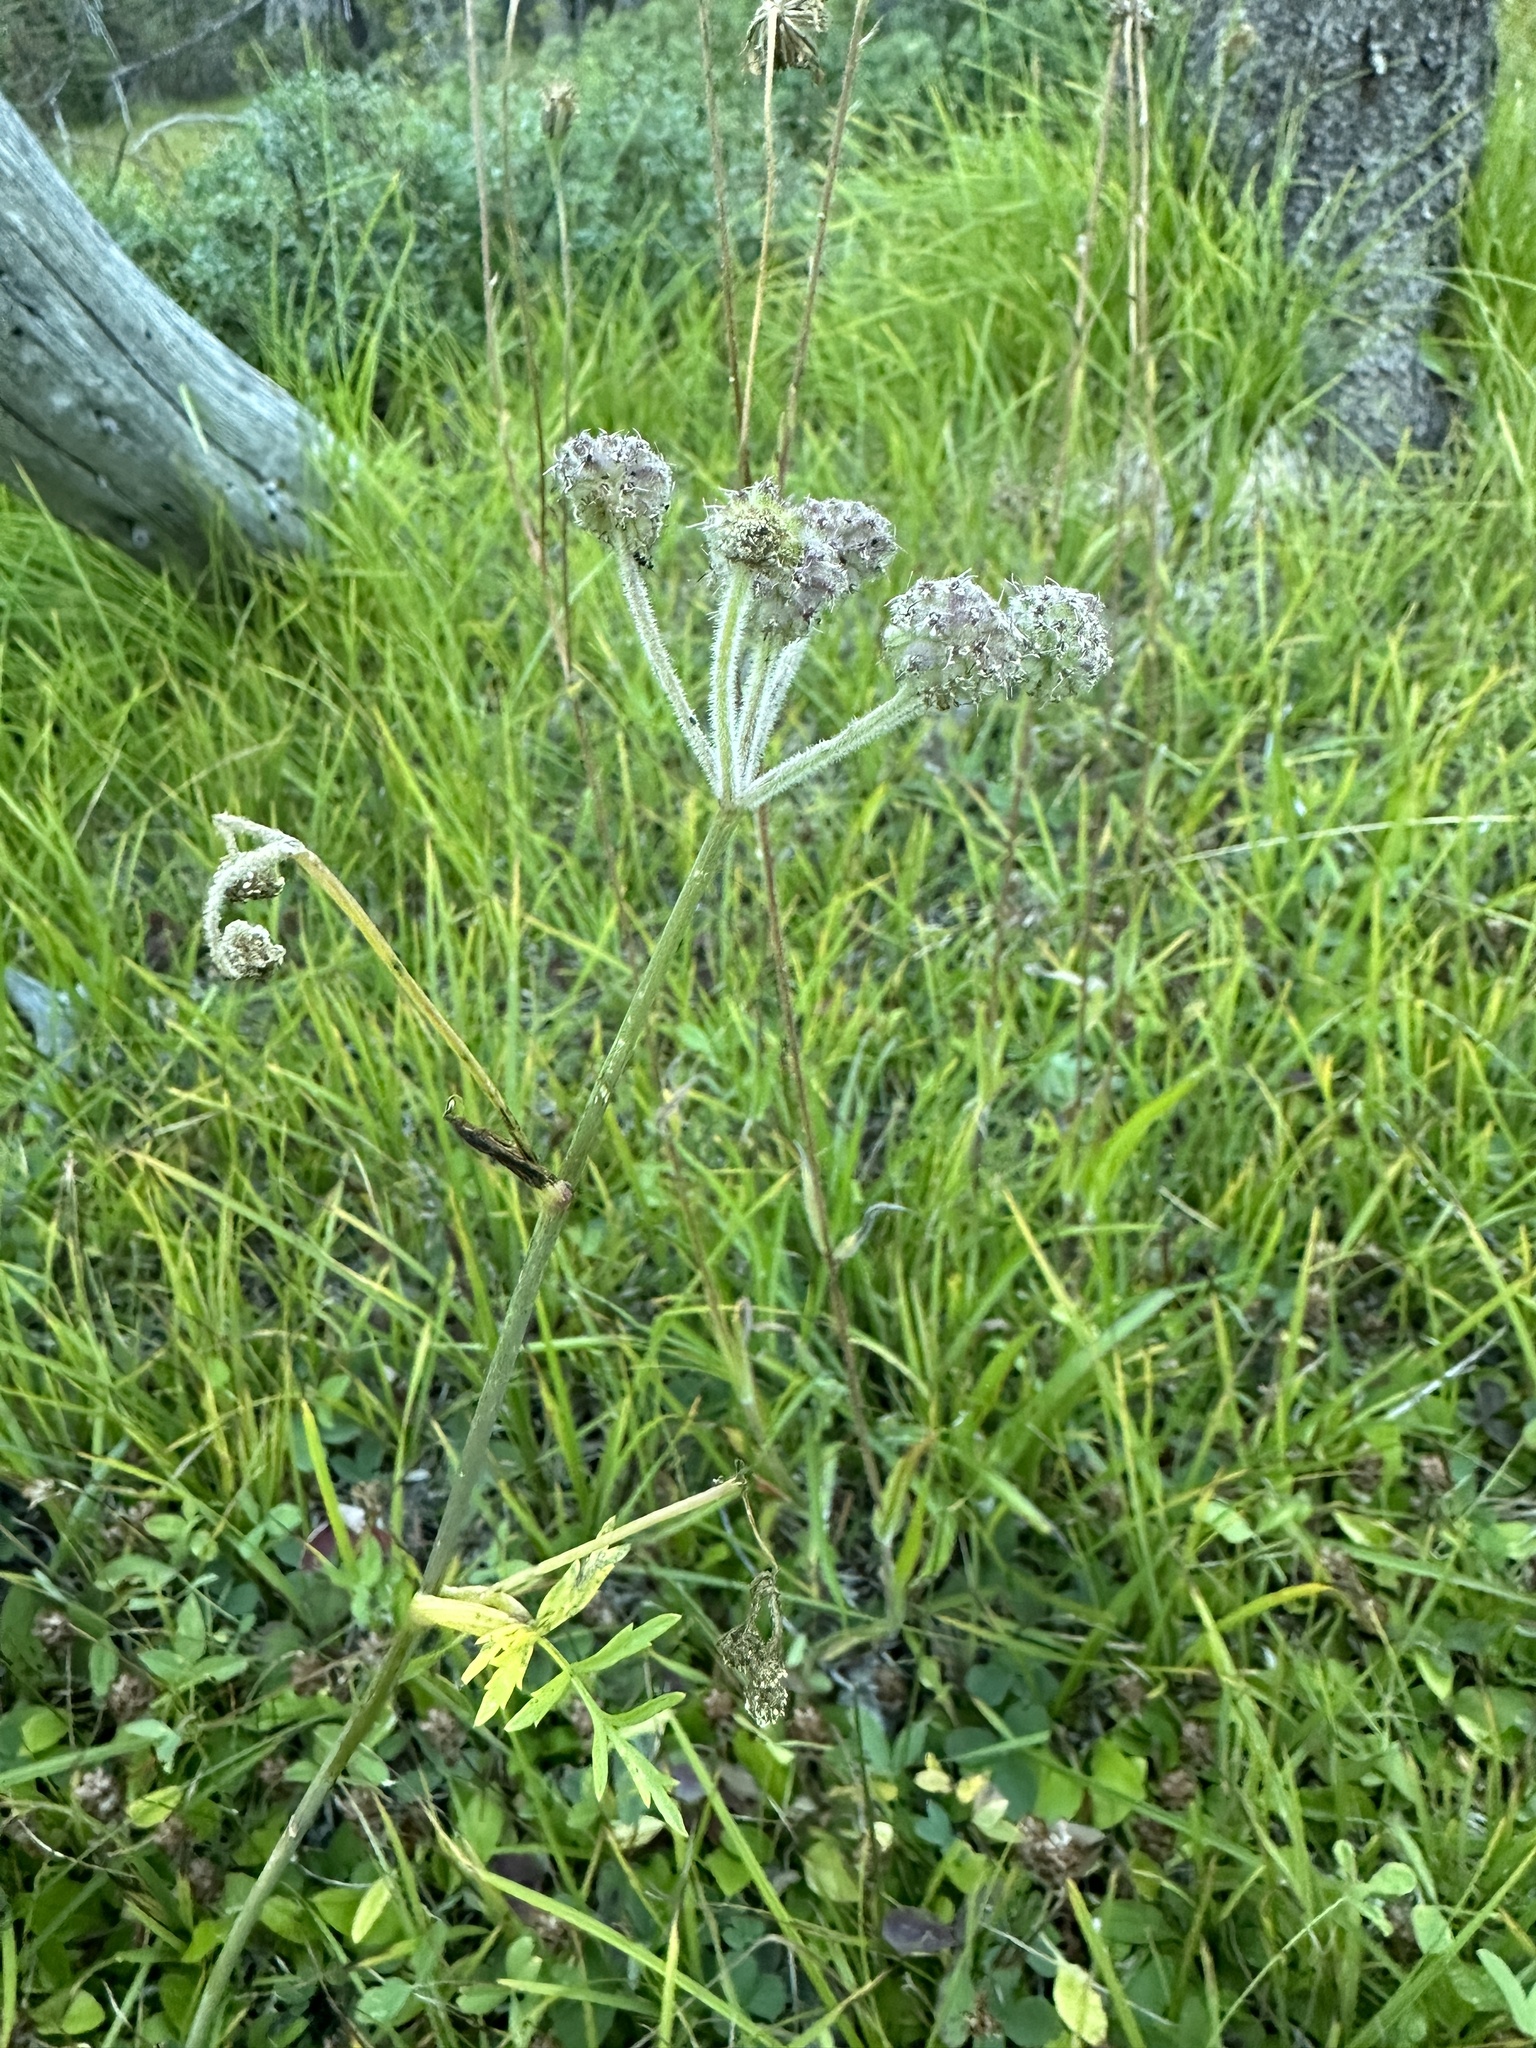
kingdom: Plantae
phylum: Tracheophyta
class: Magnoliopsida
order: Apiales
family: Apiaceae
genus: Angelica
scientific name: Angelica capitellata
